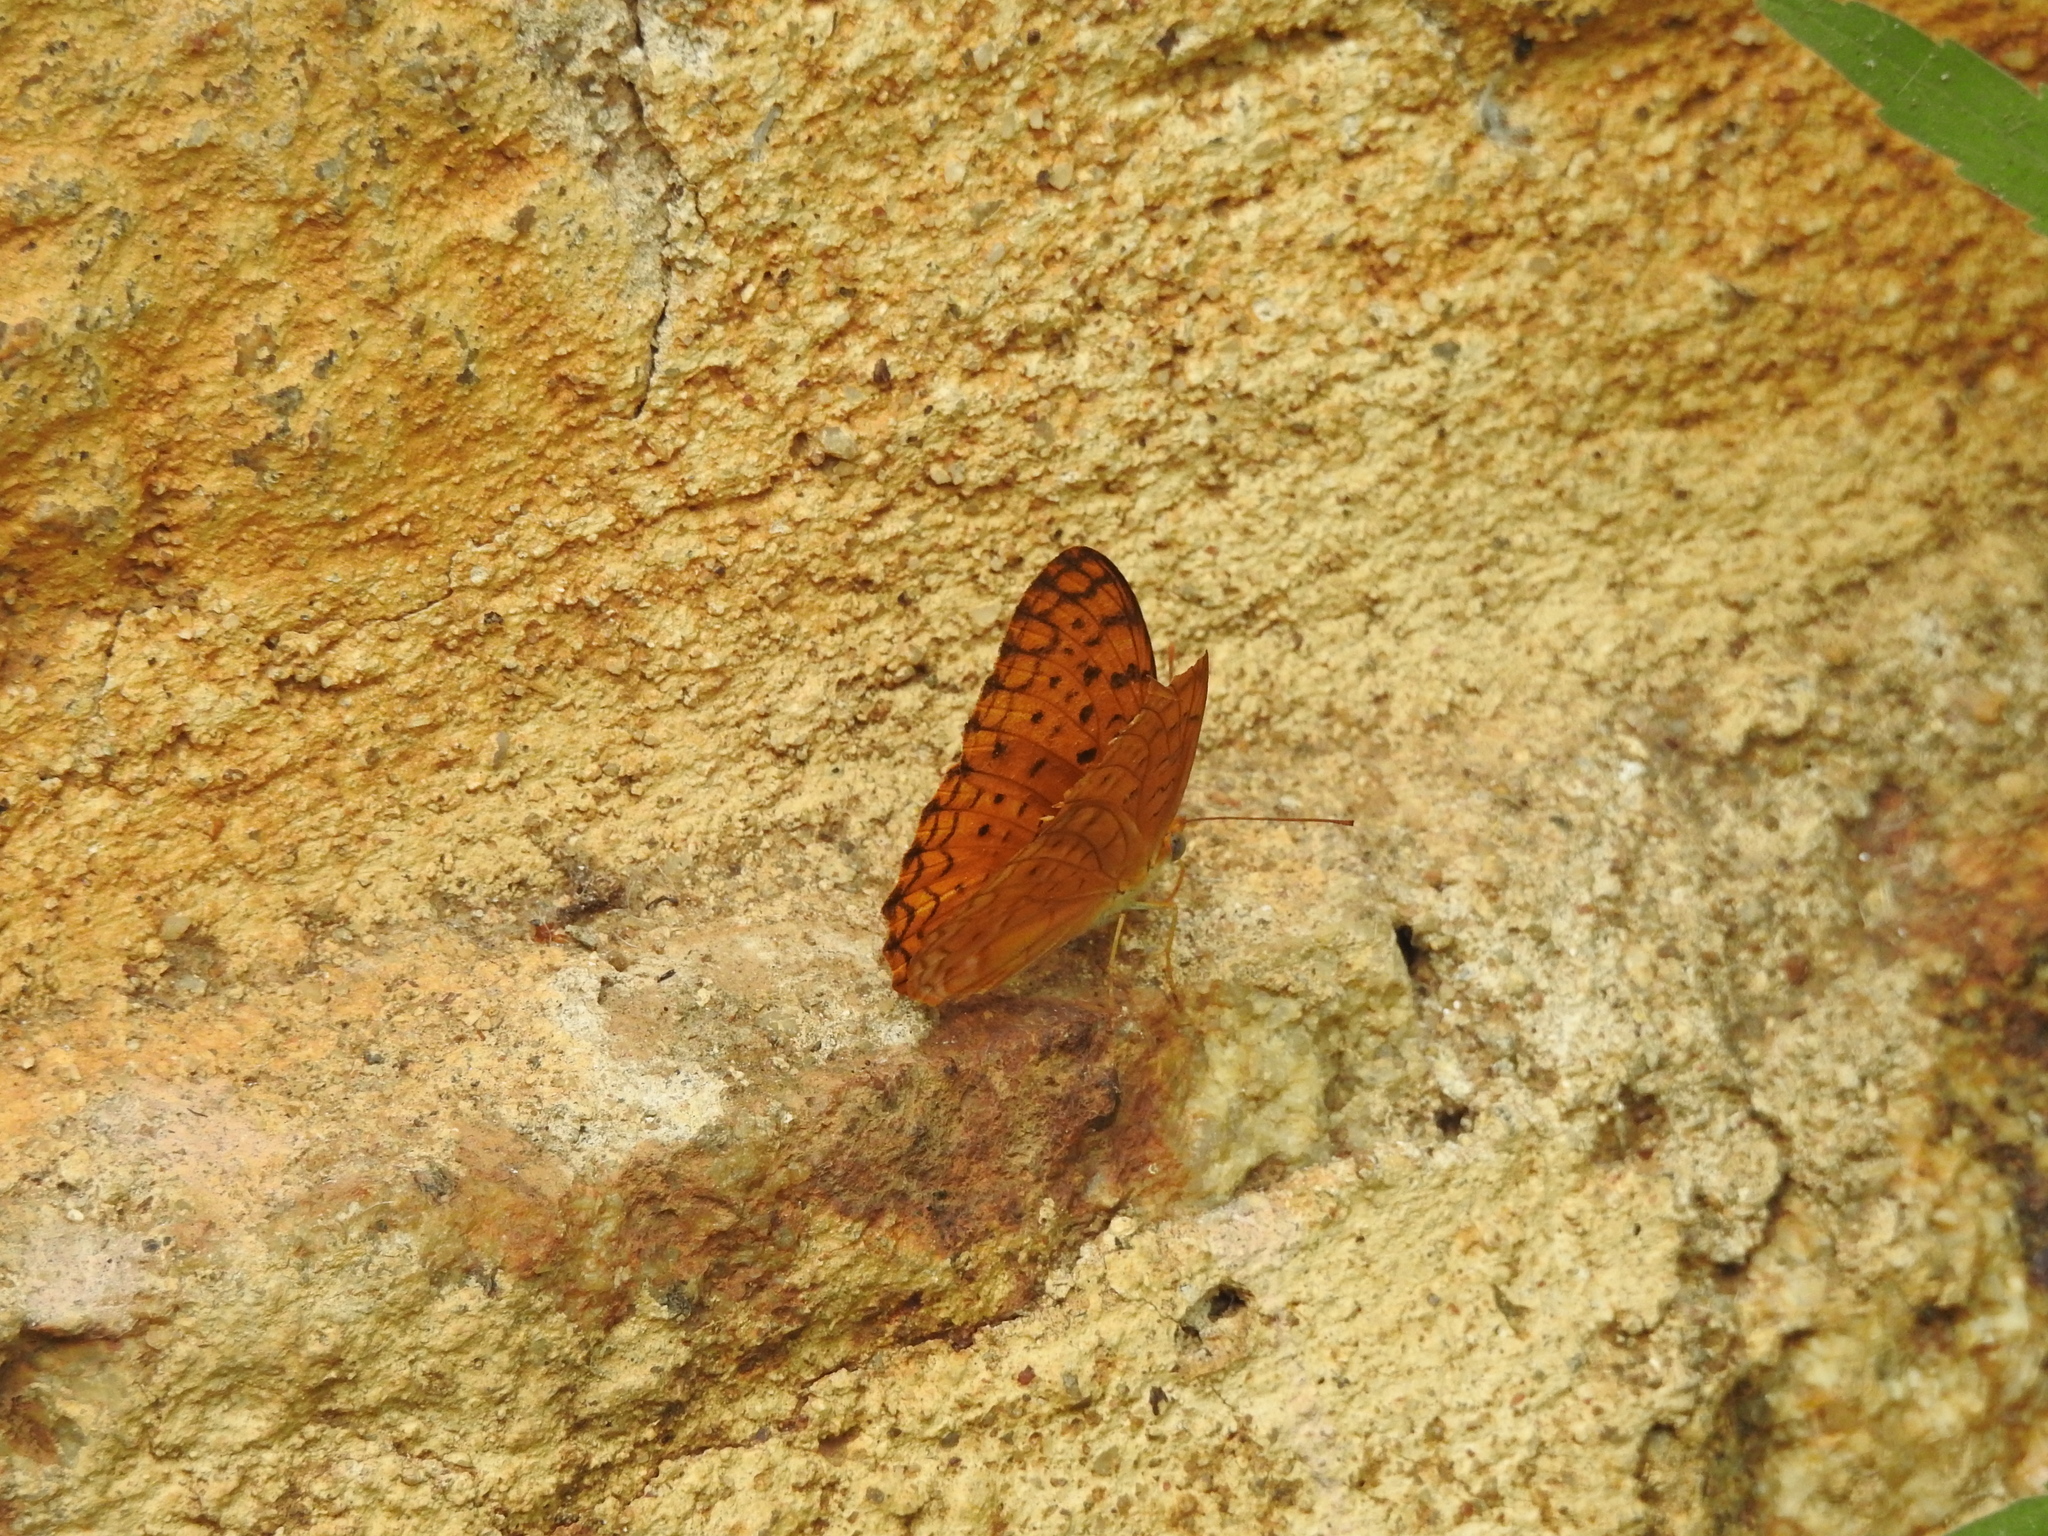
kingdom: Animalia
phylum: Arthropoda
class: Insecta
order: Lepidoptera
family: Nymphalidae
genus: Phalanta
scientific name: Phalanta phalantha
